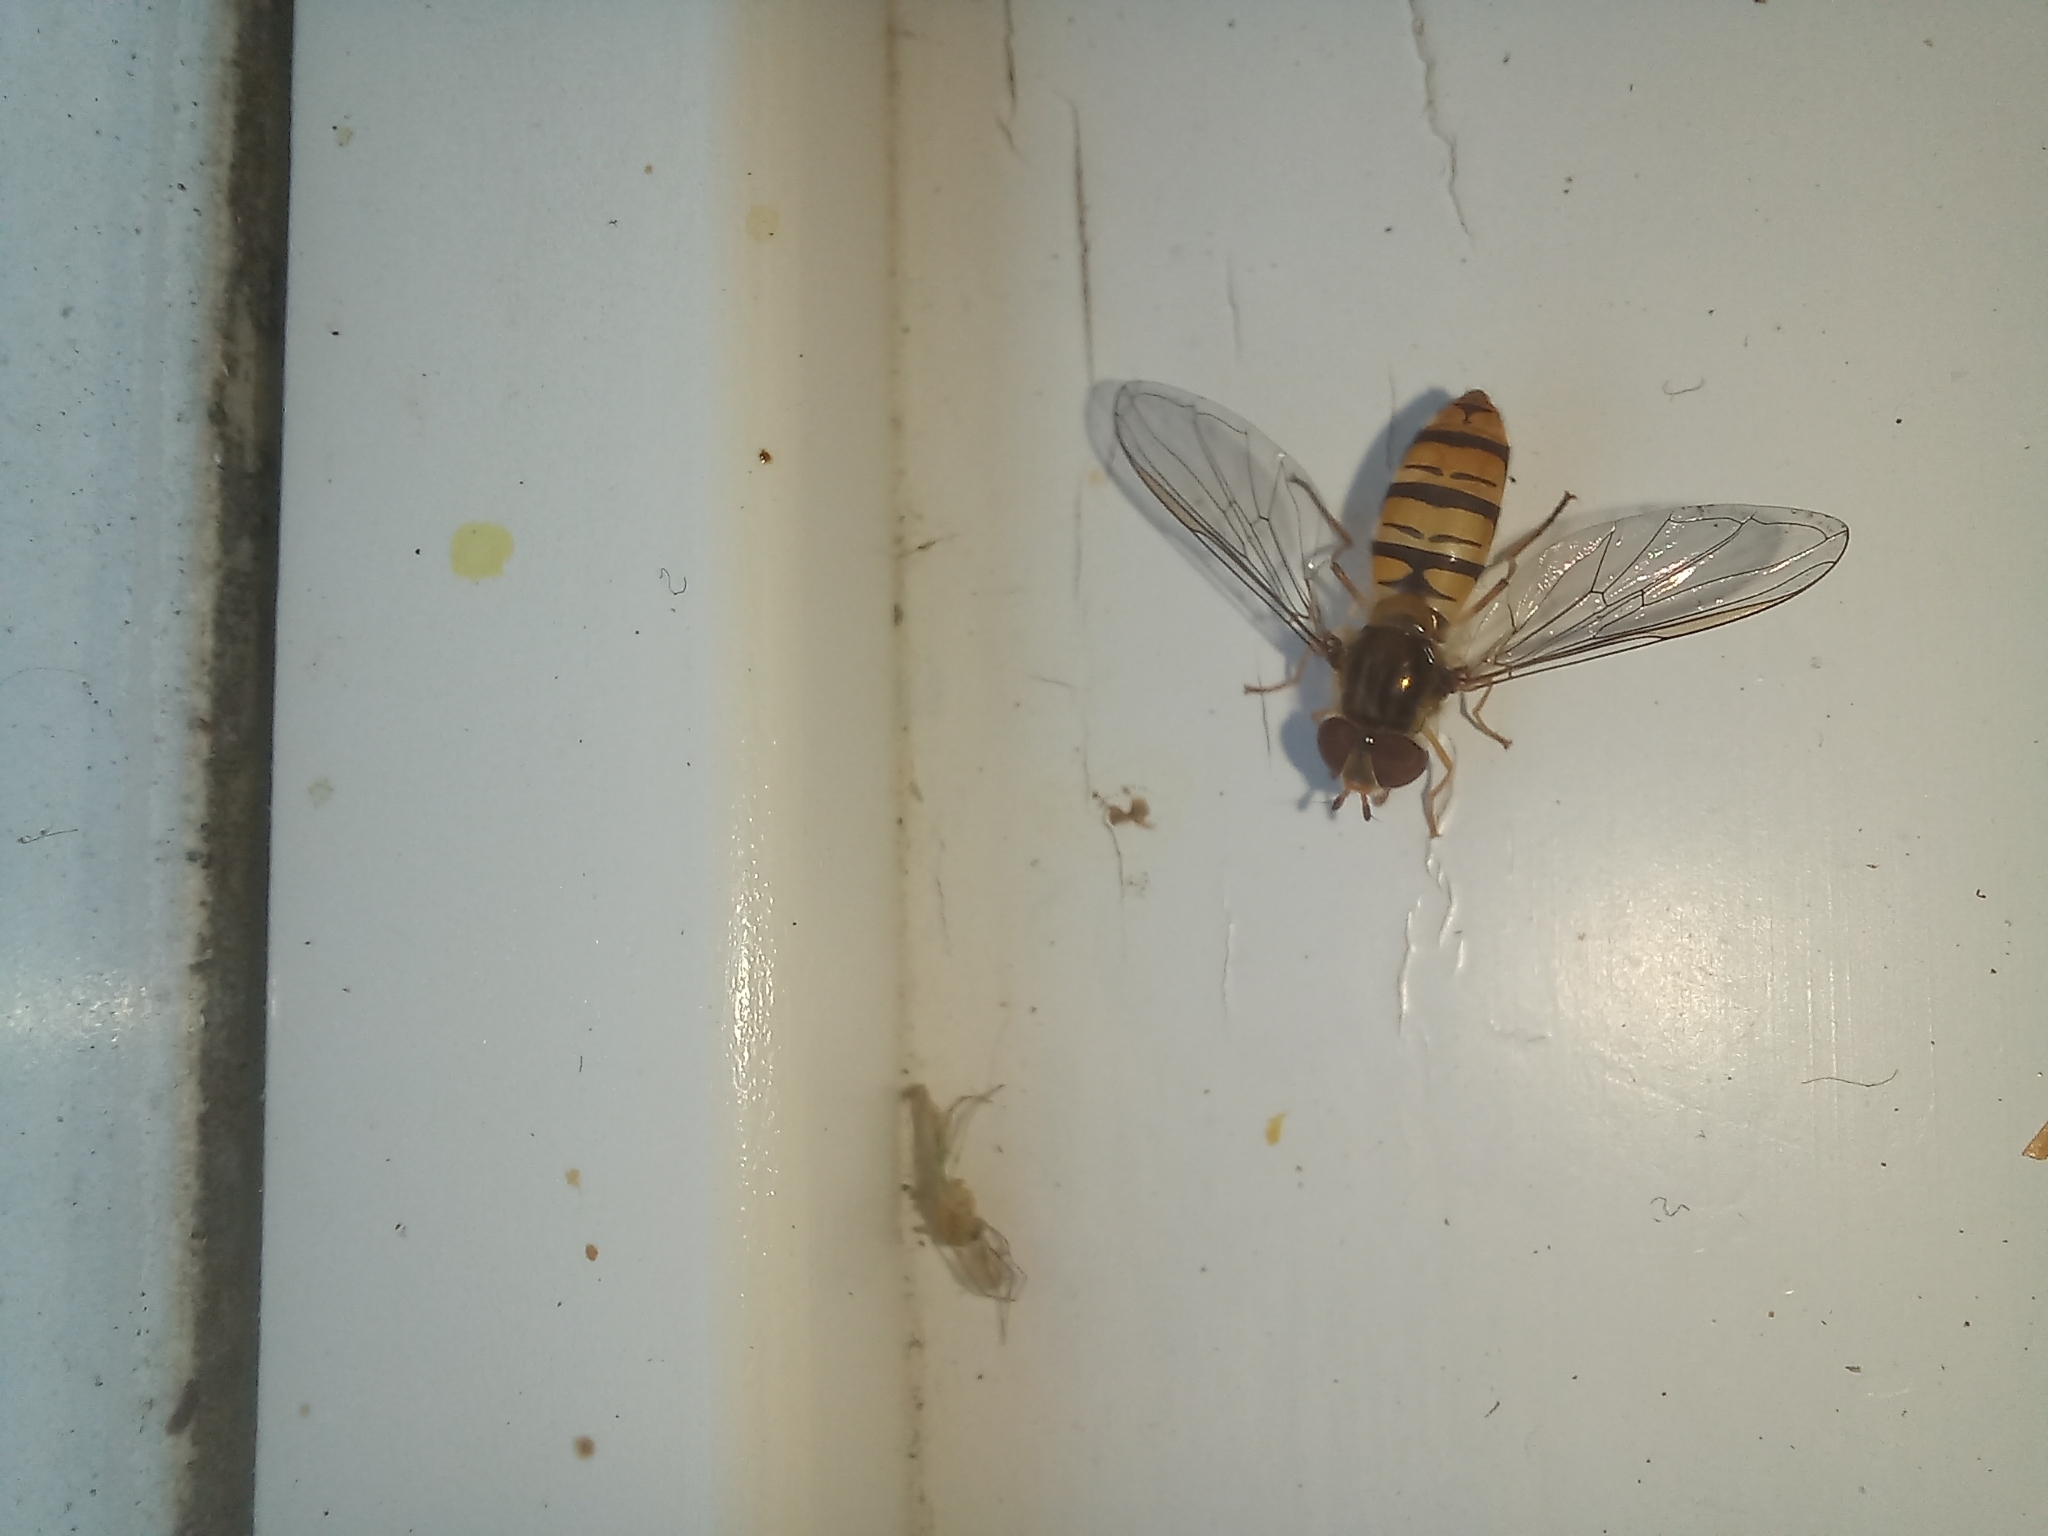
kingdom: Animalia
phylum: Arthropoda
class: Insecta
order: Diptera
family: Syrphidae
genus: Episyrphus
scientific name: Episyrphus balteatus
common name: Marmalade hoverfly
